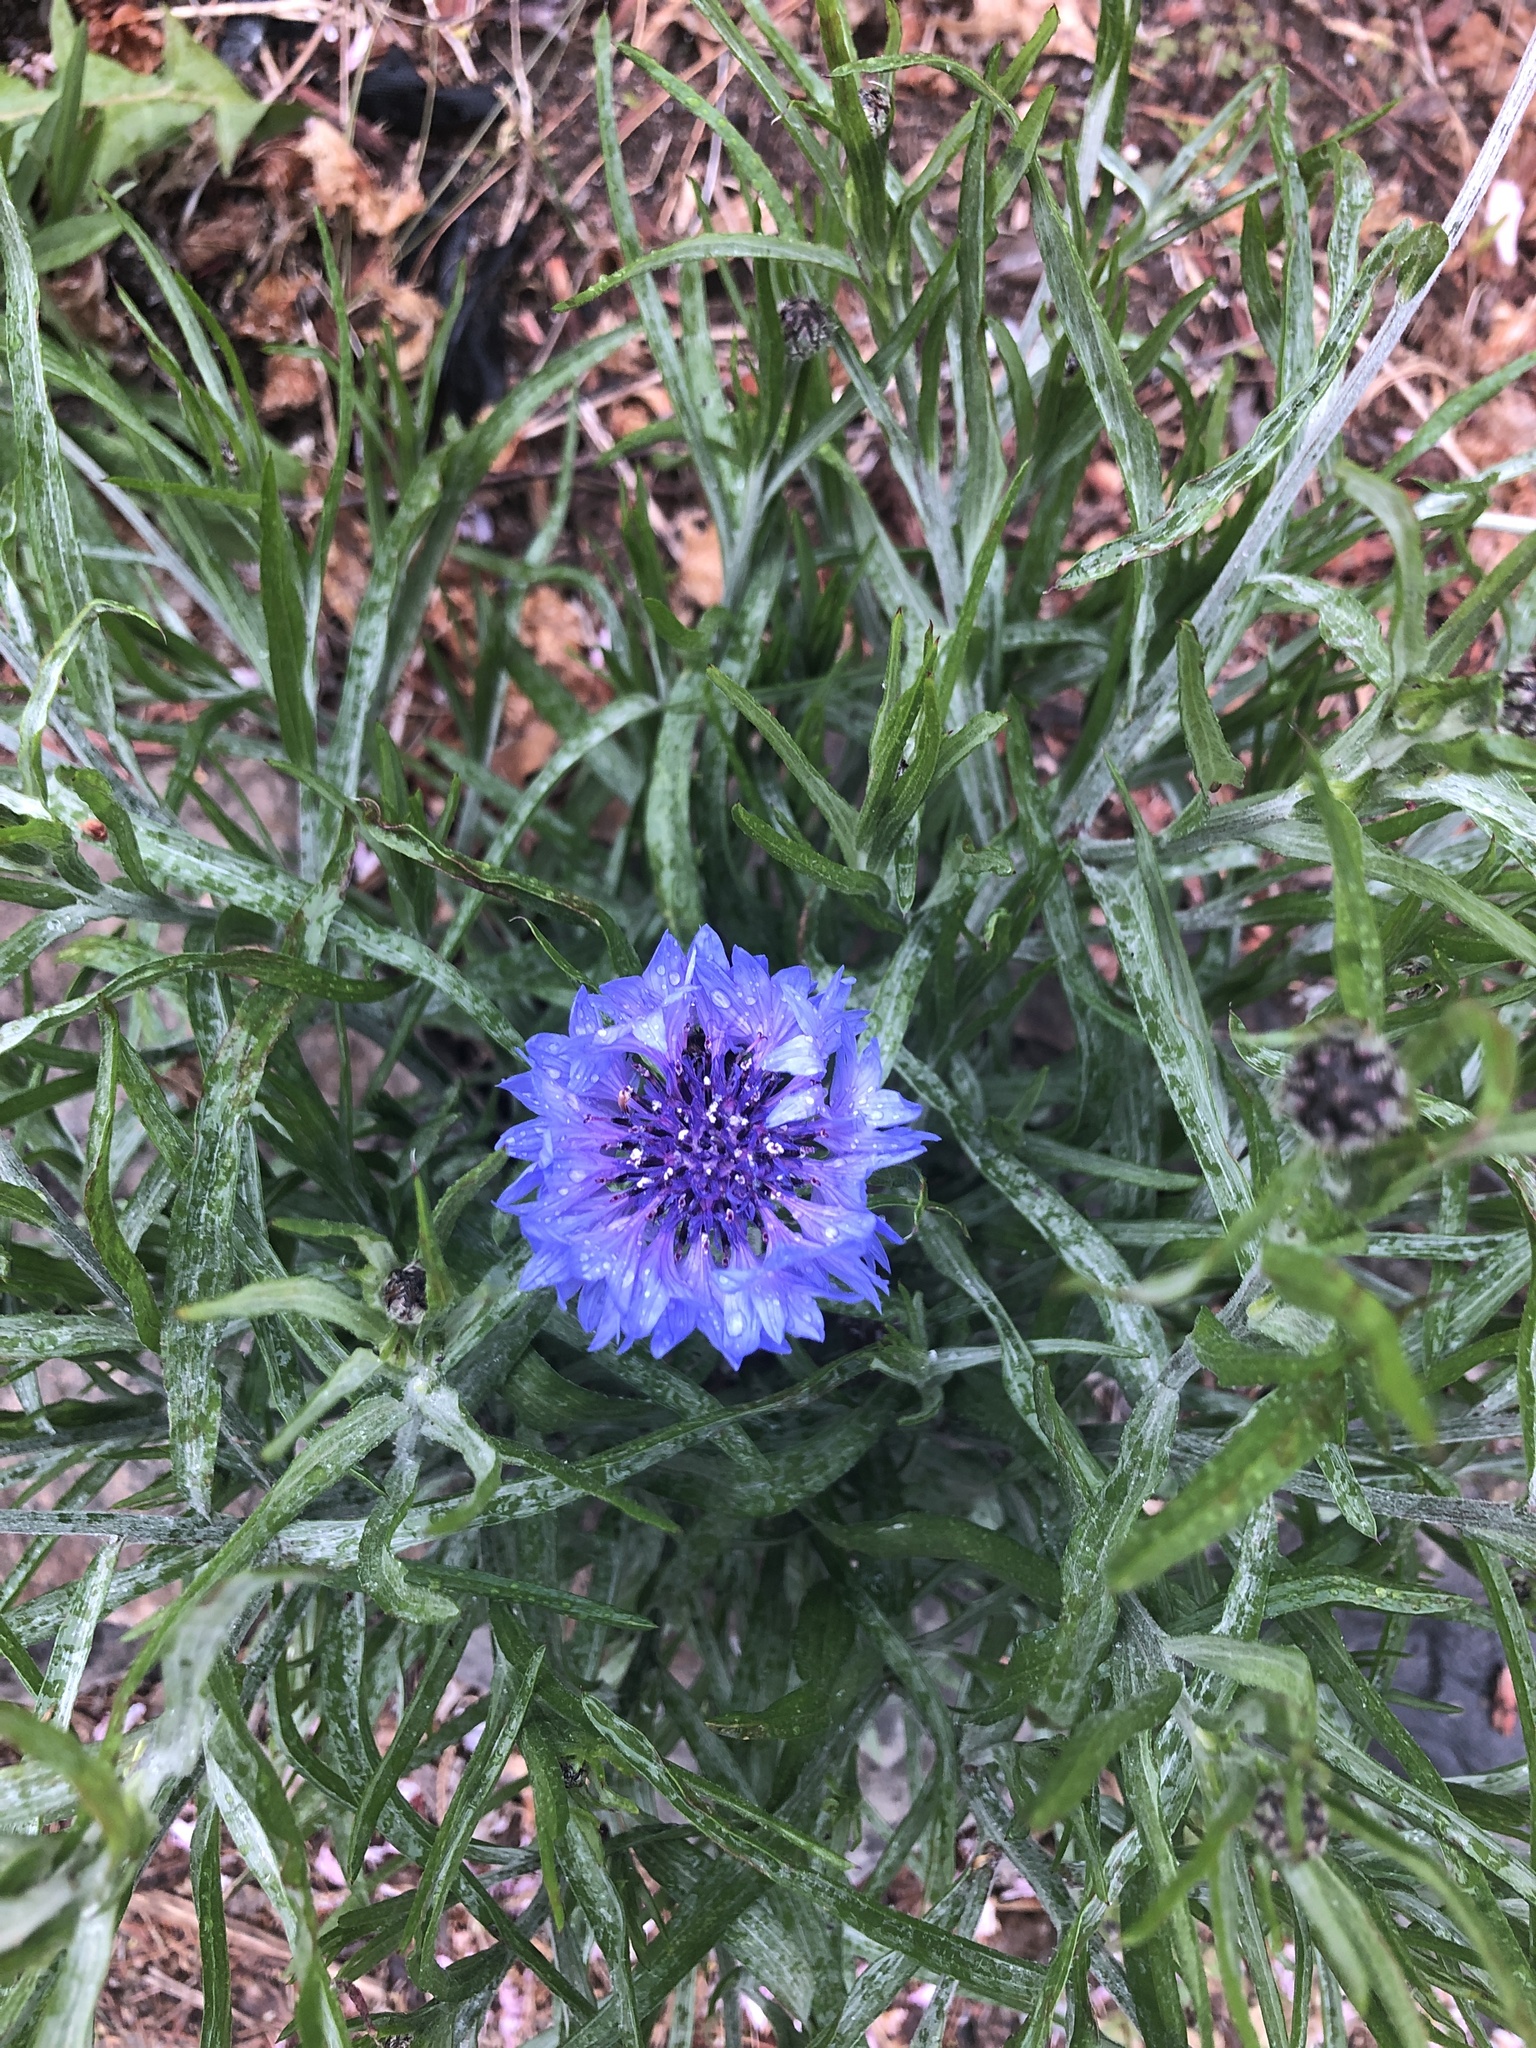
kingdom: Plantae
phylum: Tracheophyta
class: Magnoliopsida
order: Asterales
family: Asteraceae
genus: Centaurea
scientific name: Centaurea cyanus
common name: Cornflower
